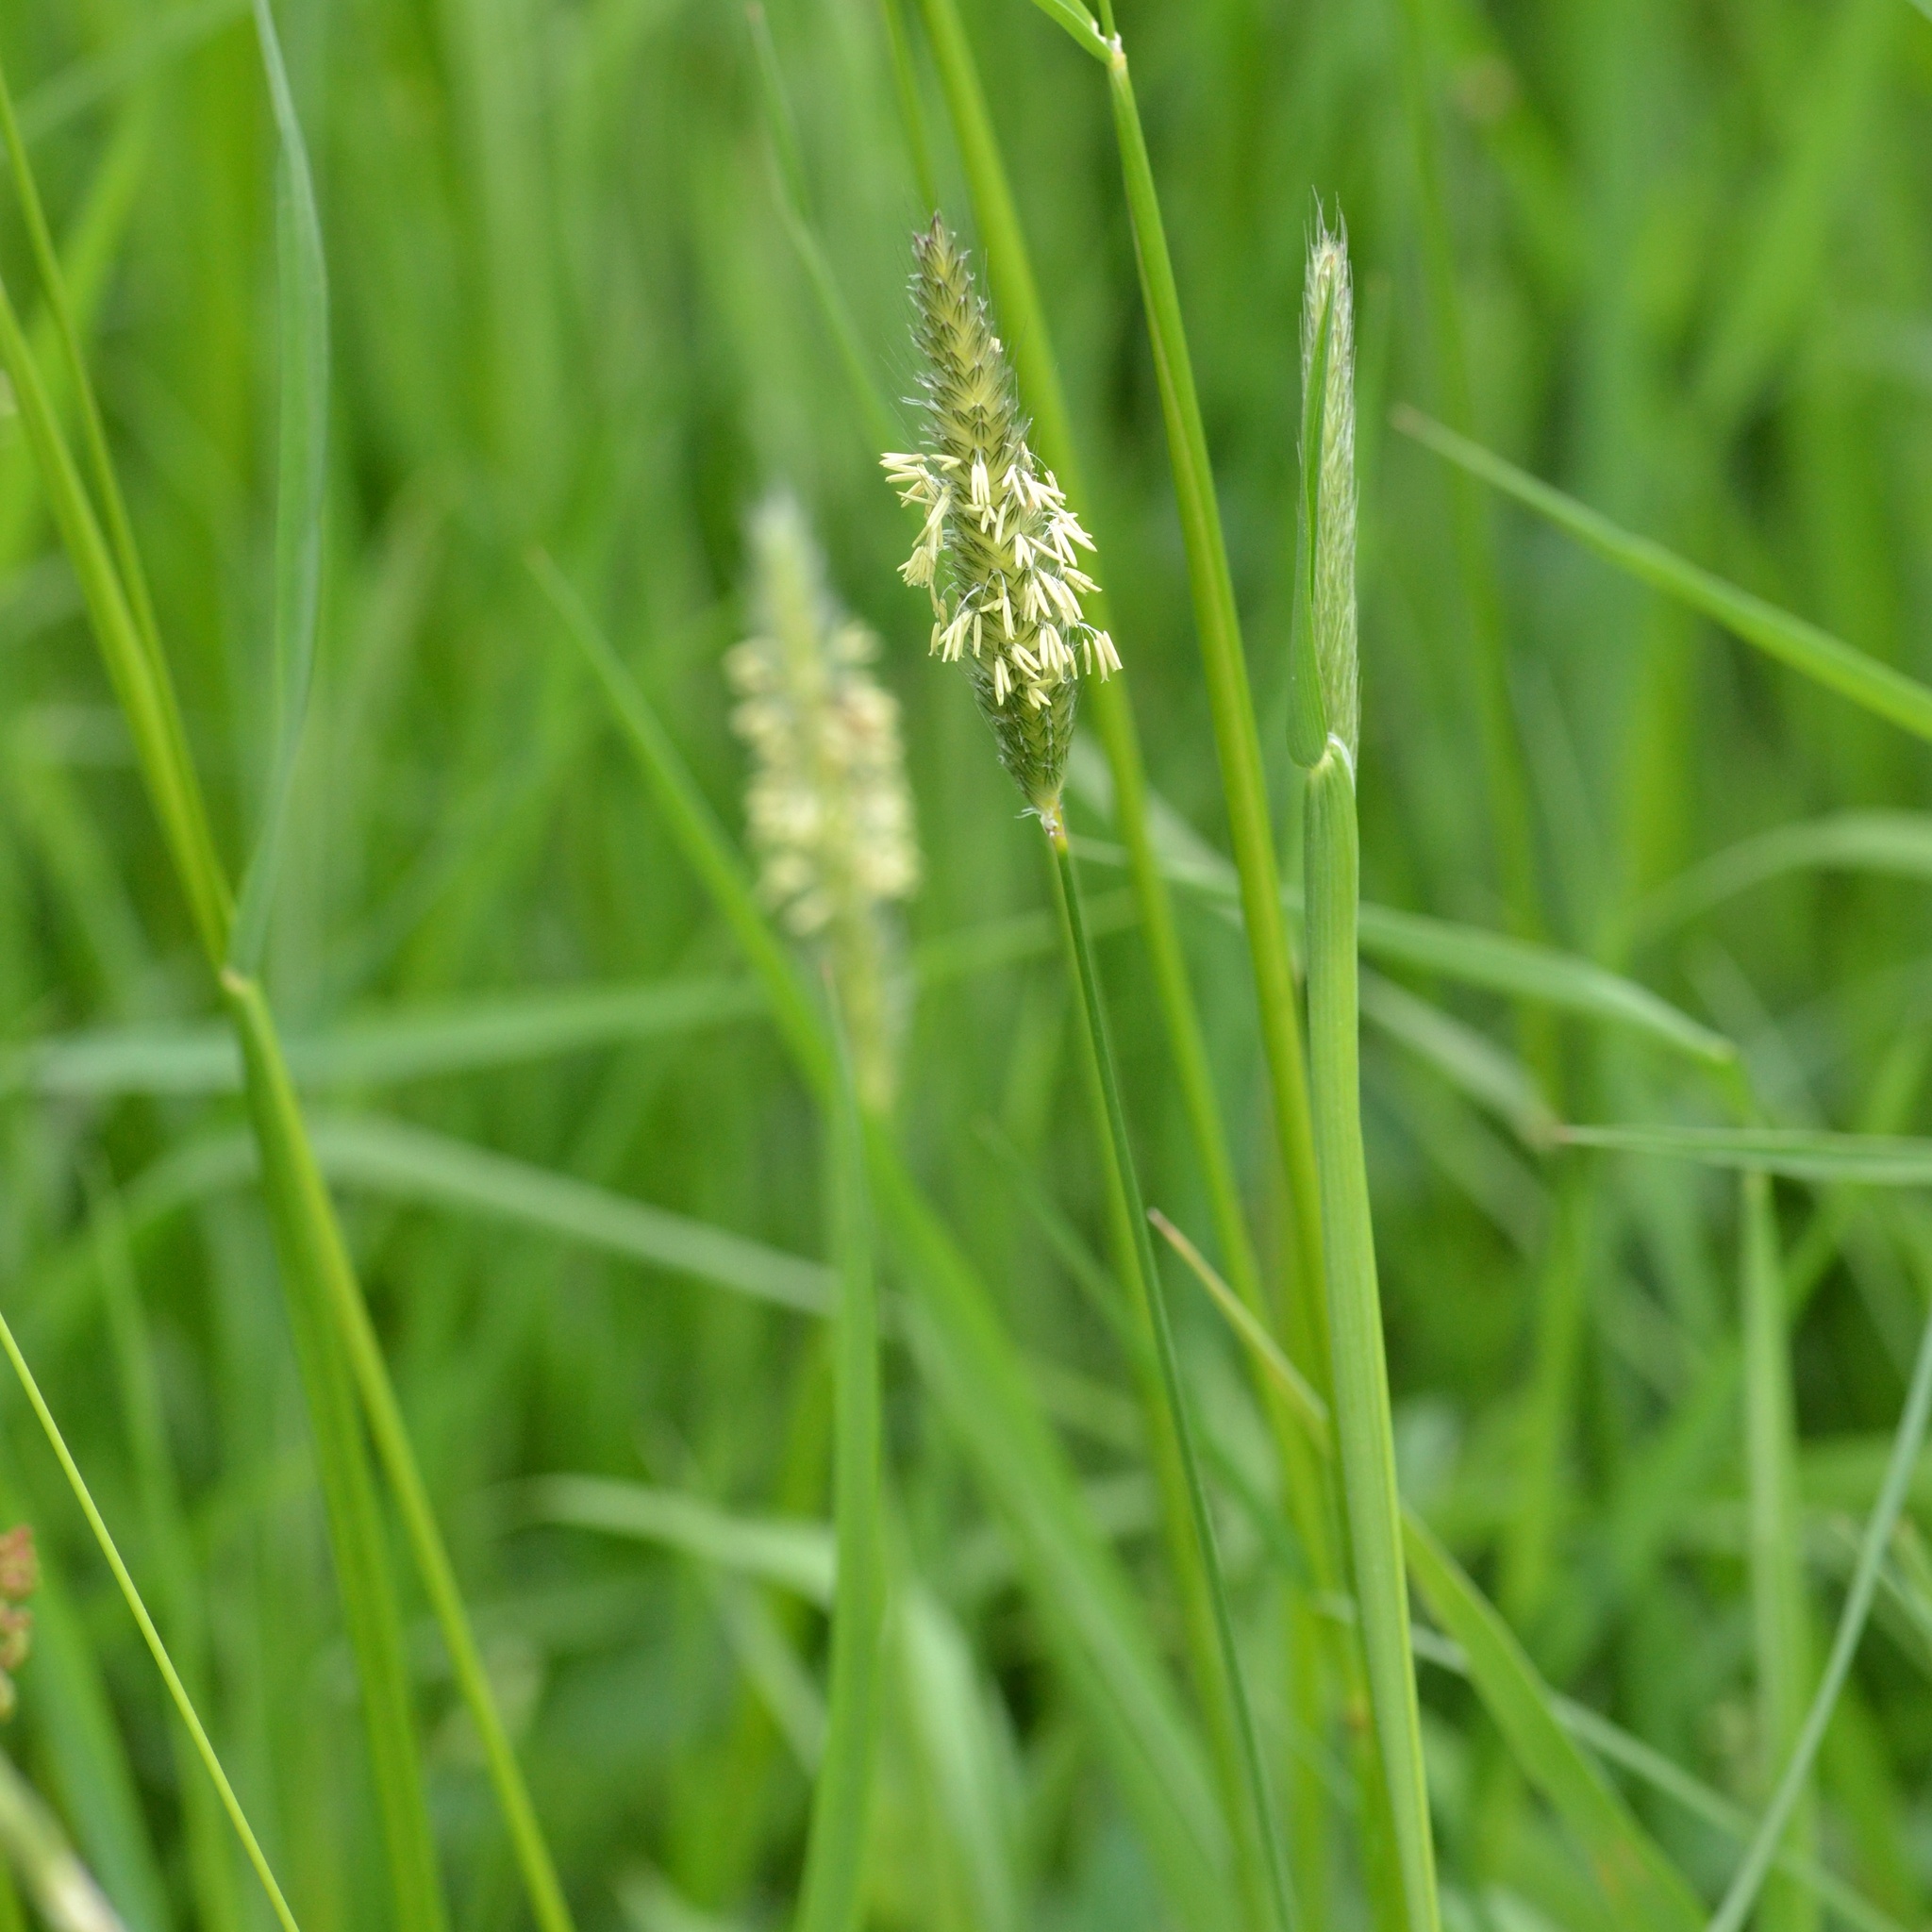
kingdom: Plantae
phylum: Tracheophyta
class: Liliopsida
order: Poales
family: Poaceae
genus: Alopecurus
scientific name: Alopecurus pratensis
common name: Meadow foxtail
